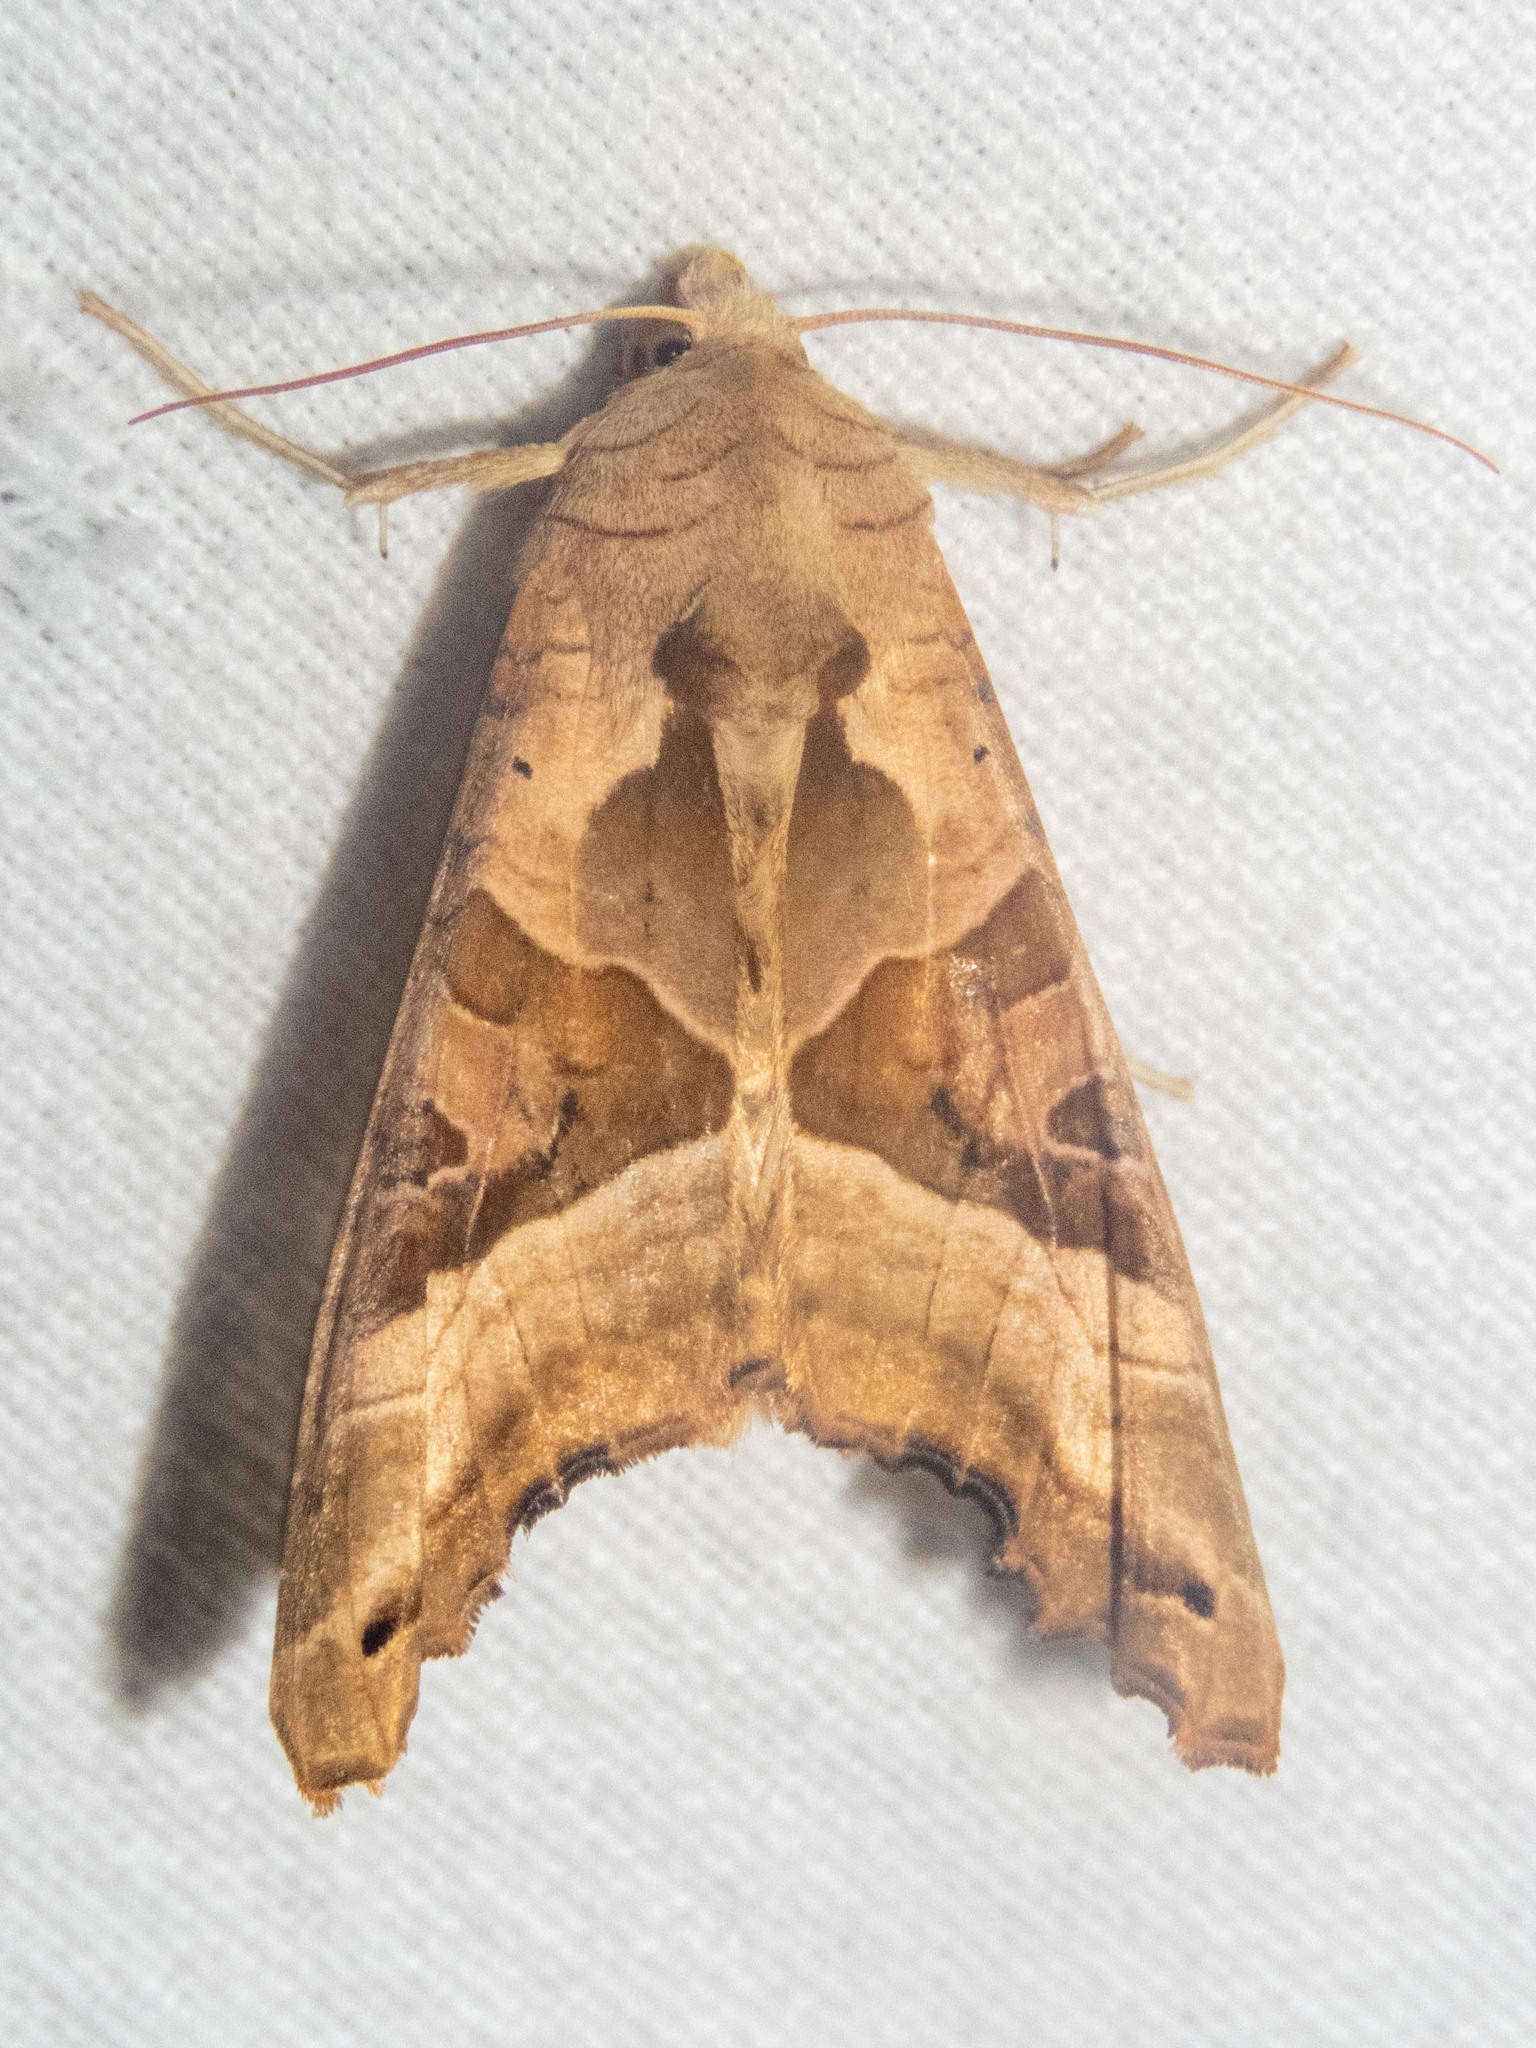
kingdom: Animalia
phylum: Arthropoda
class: Insecta
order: Lepidoptera
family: Noctuidae
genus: Phlogophora
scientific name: Phlogophora meticulosa
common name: Angle shades
